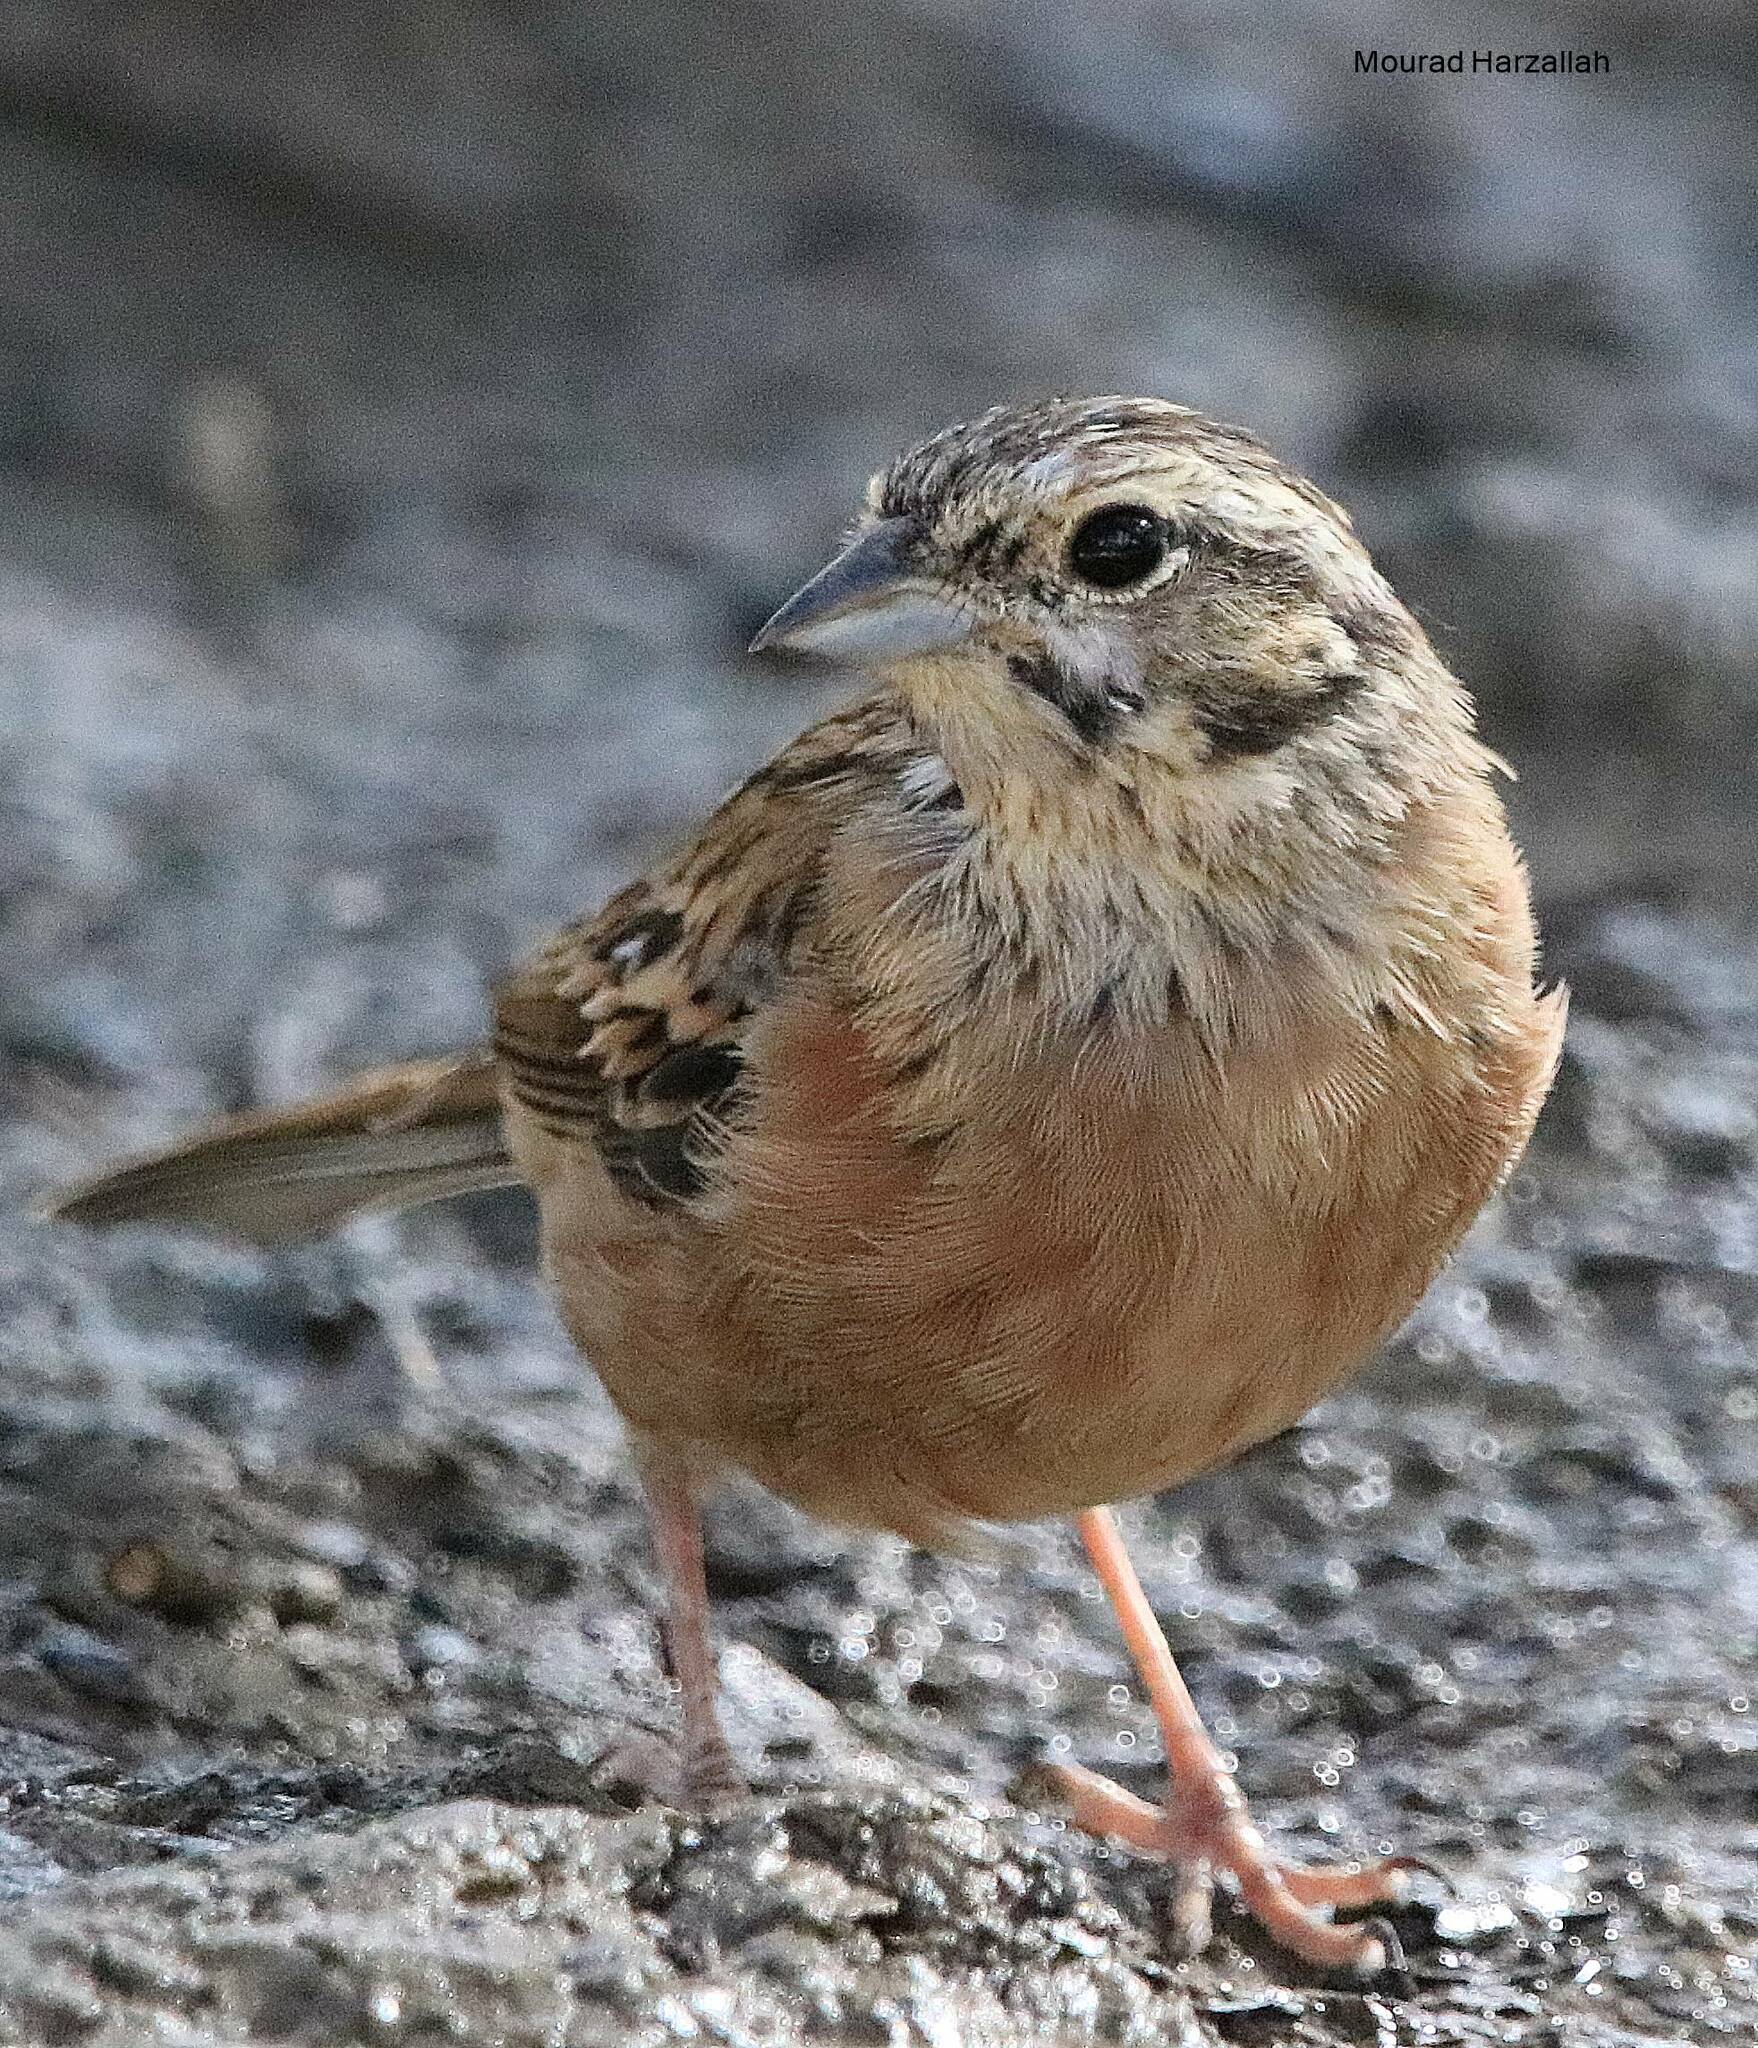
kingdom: Animalia
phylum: Chordata
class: Aves
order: Passeriformes
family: Emberizidae
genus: Emberiza
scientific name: Emberiza cia
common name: Rock bunting
